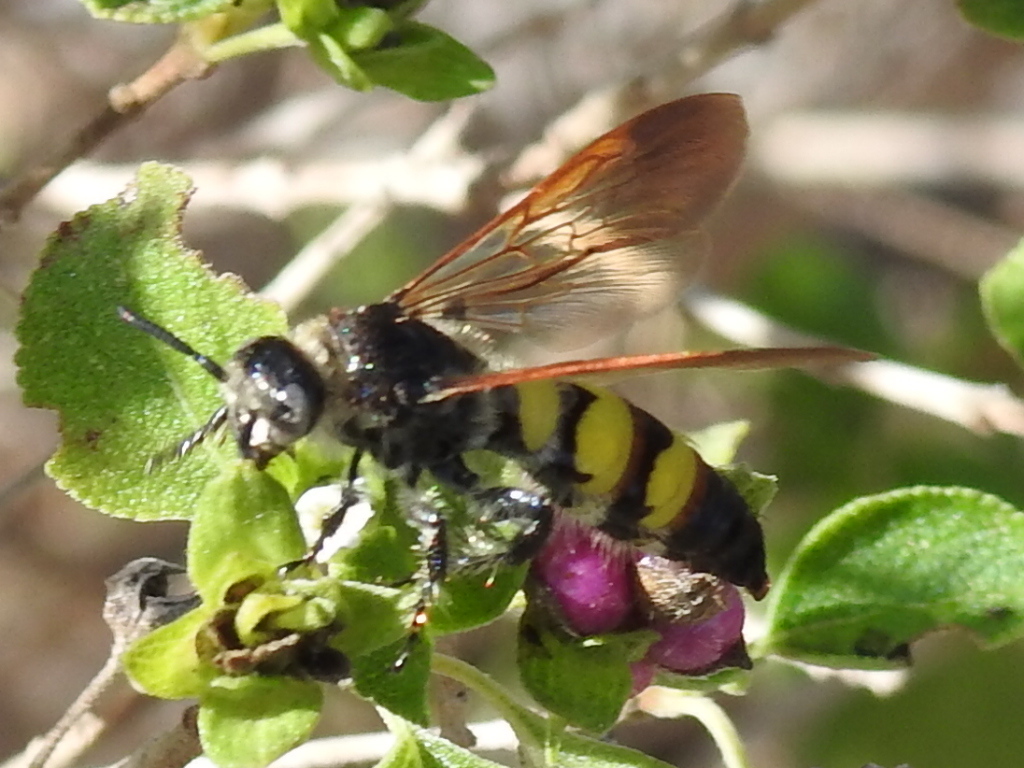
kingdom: Animalia
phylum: Arthropoda
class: Insecta
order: Hymenoptera
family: Scoliidae
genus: Dielis
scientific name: Dielis
